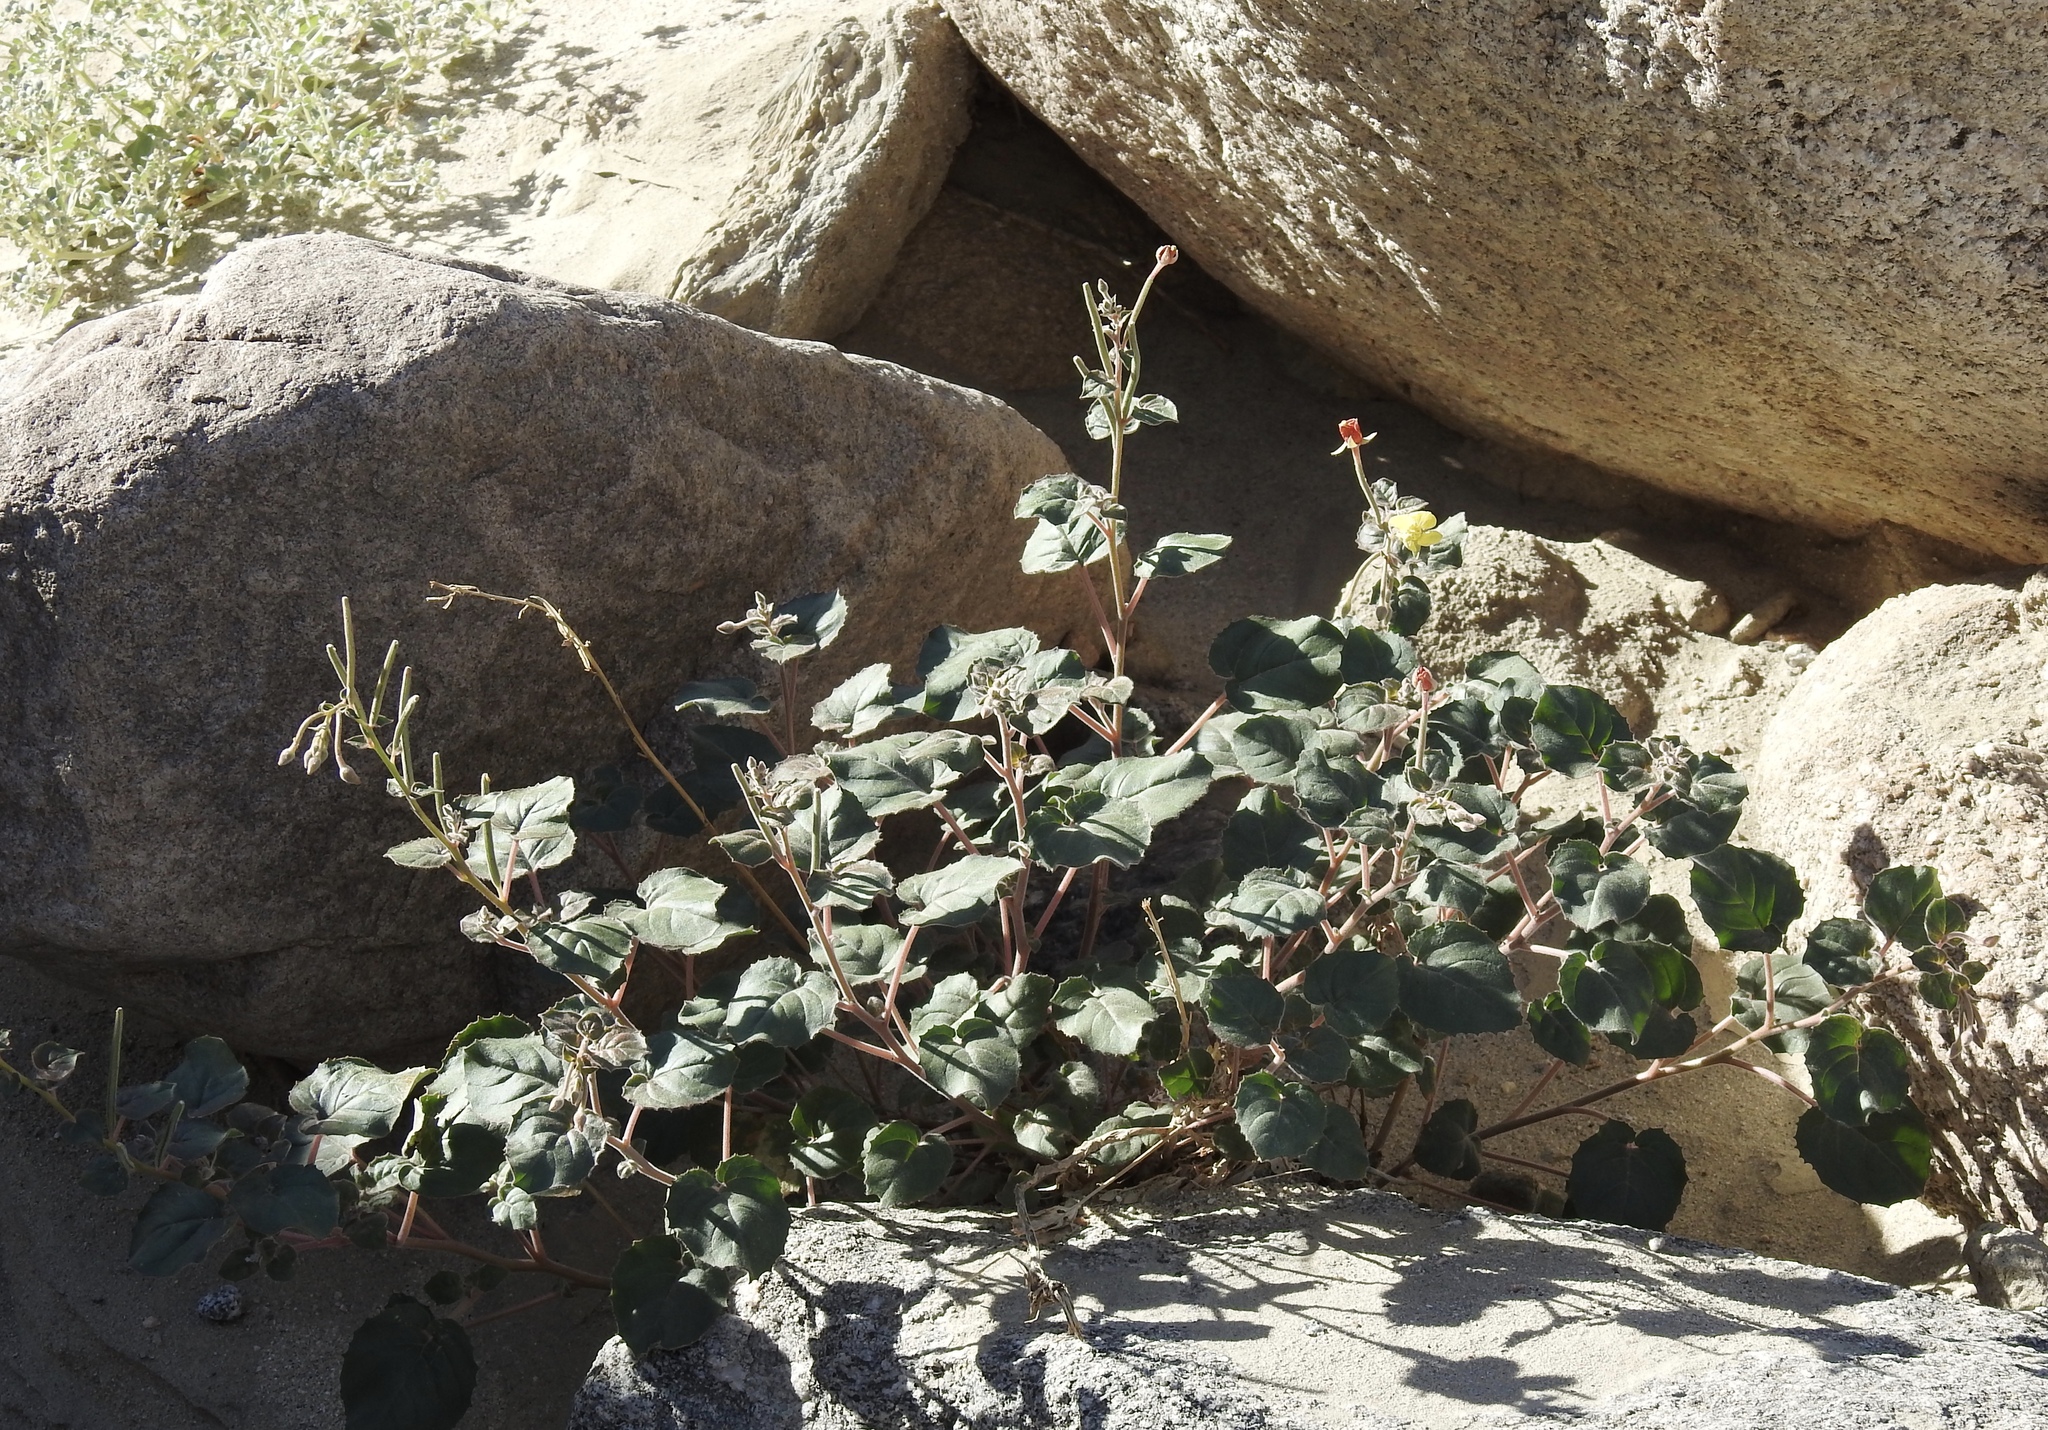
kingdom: Plantae
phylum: Tracheophyta
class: Magnoliopsida
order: Myrtales
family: Onagraceae
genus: Chylismia
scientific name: Chylismia cardiophylla
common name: Heartleaf suncup
